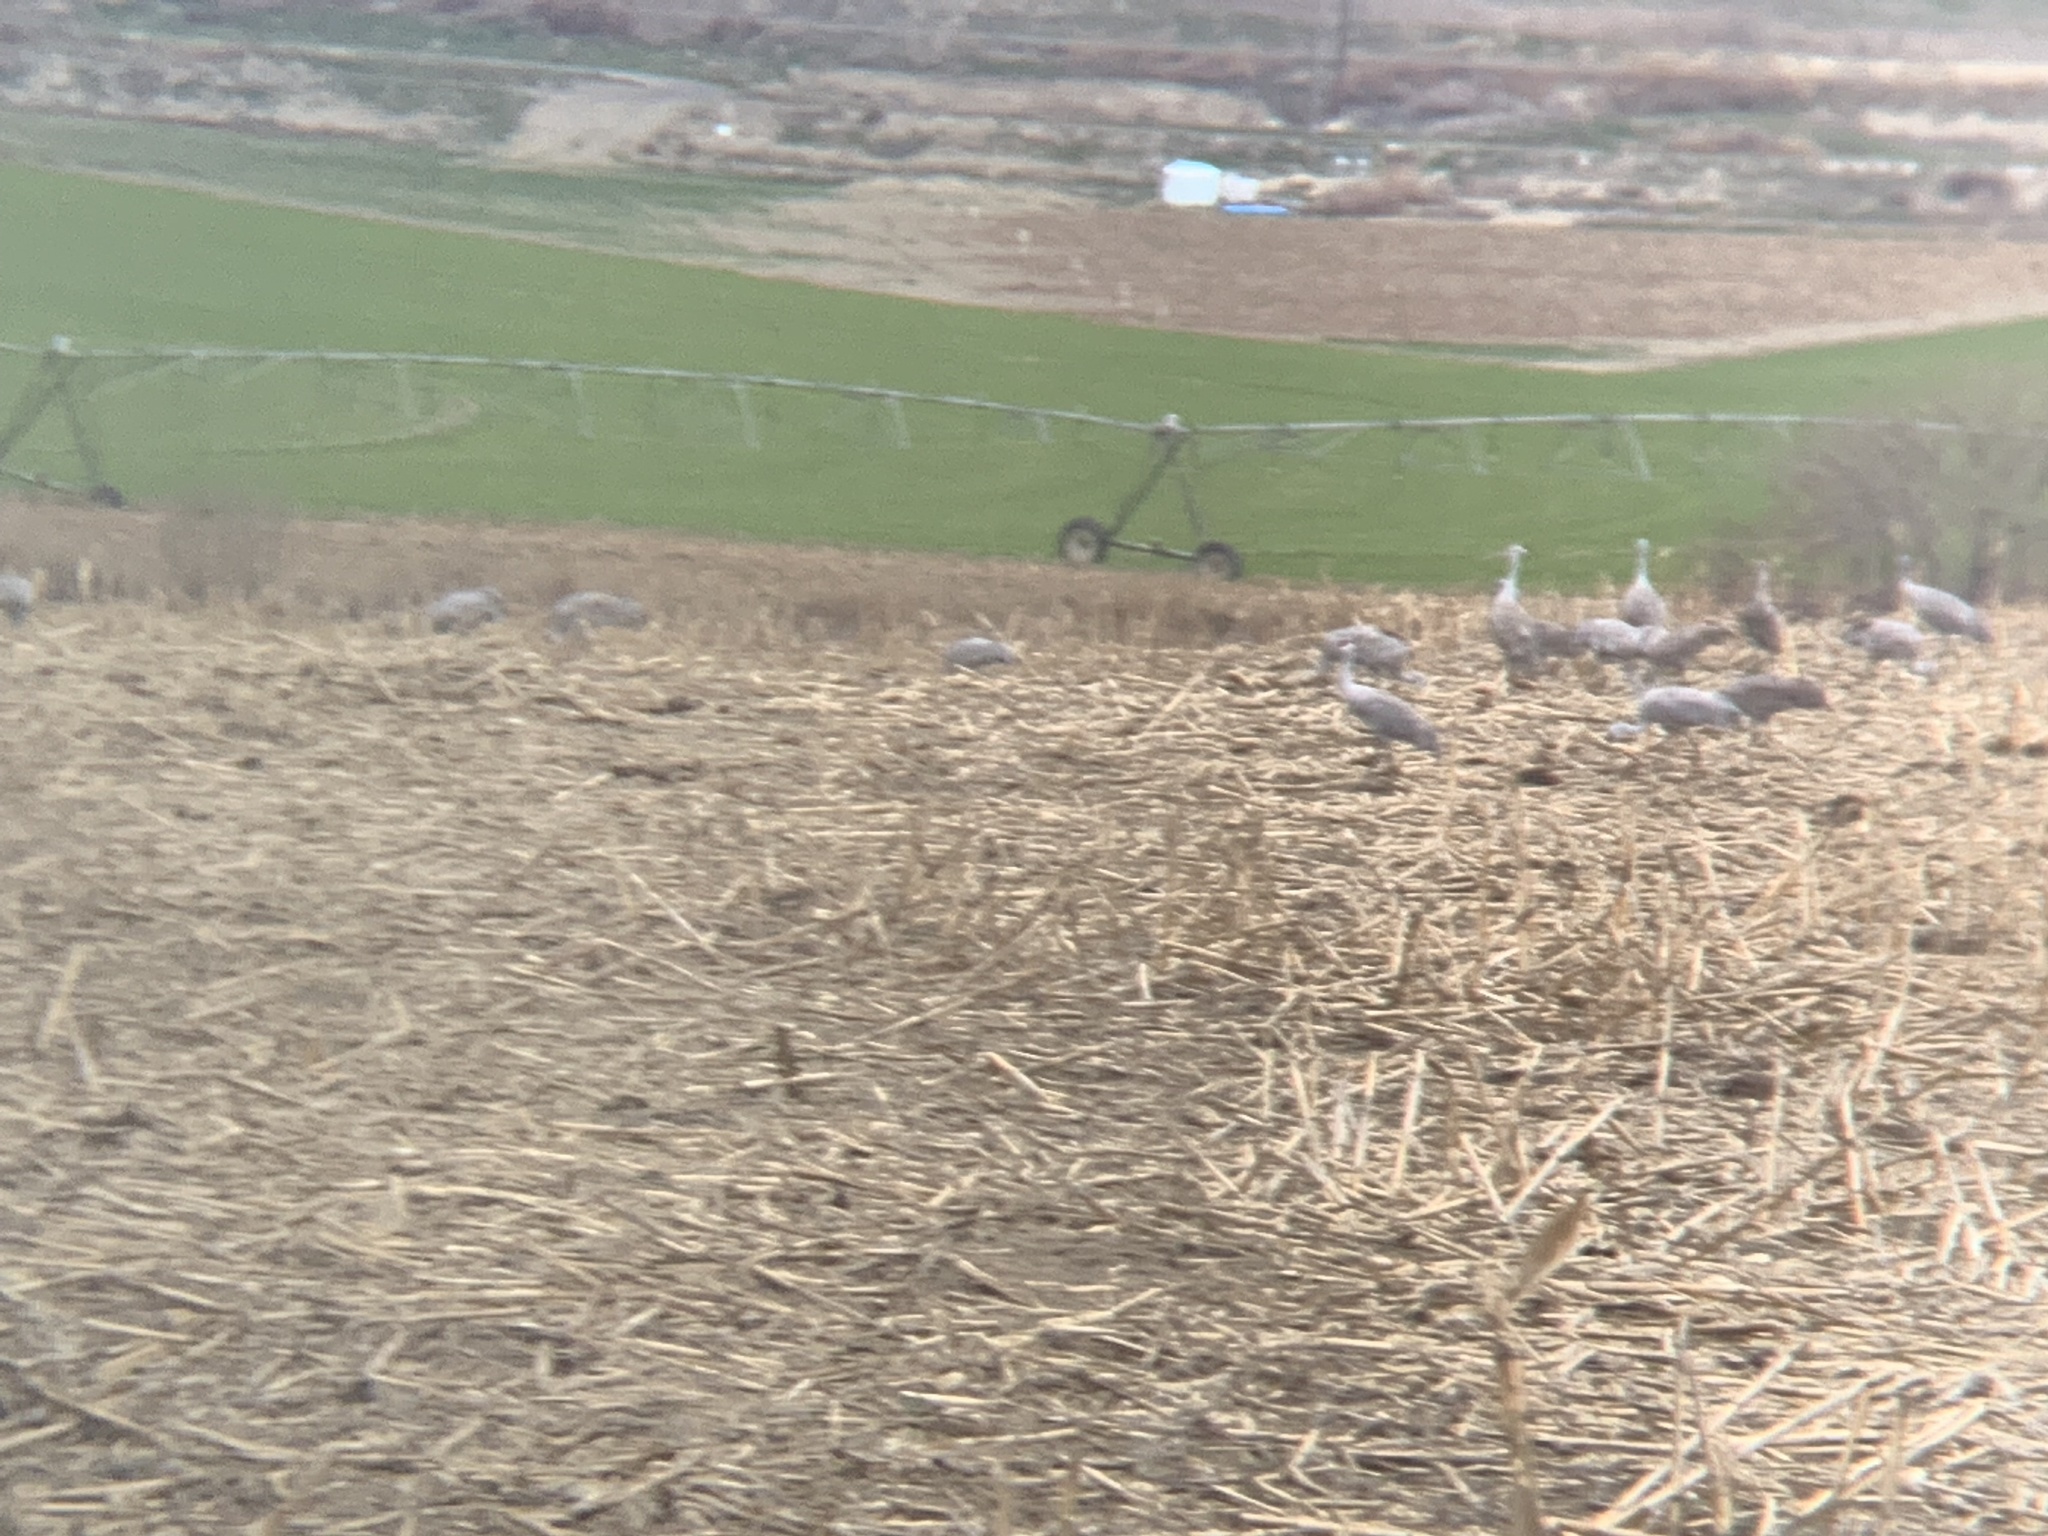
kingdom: Animalia
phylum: Chordata
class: Aves
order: Gruiformes
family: Gruidae
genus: Grus
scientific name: Grus canadensis
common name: Sandhill crane
